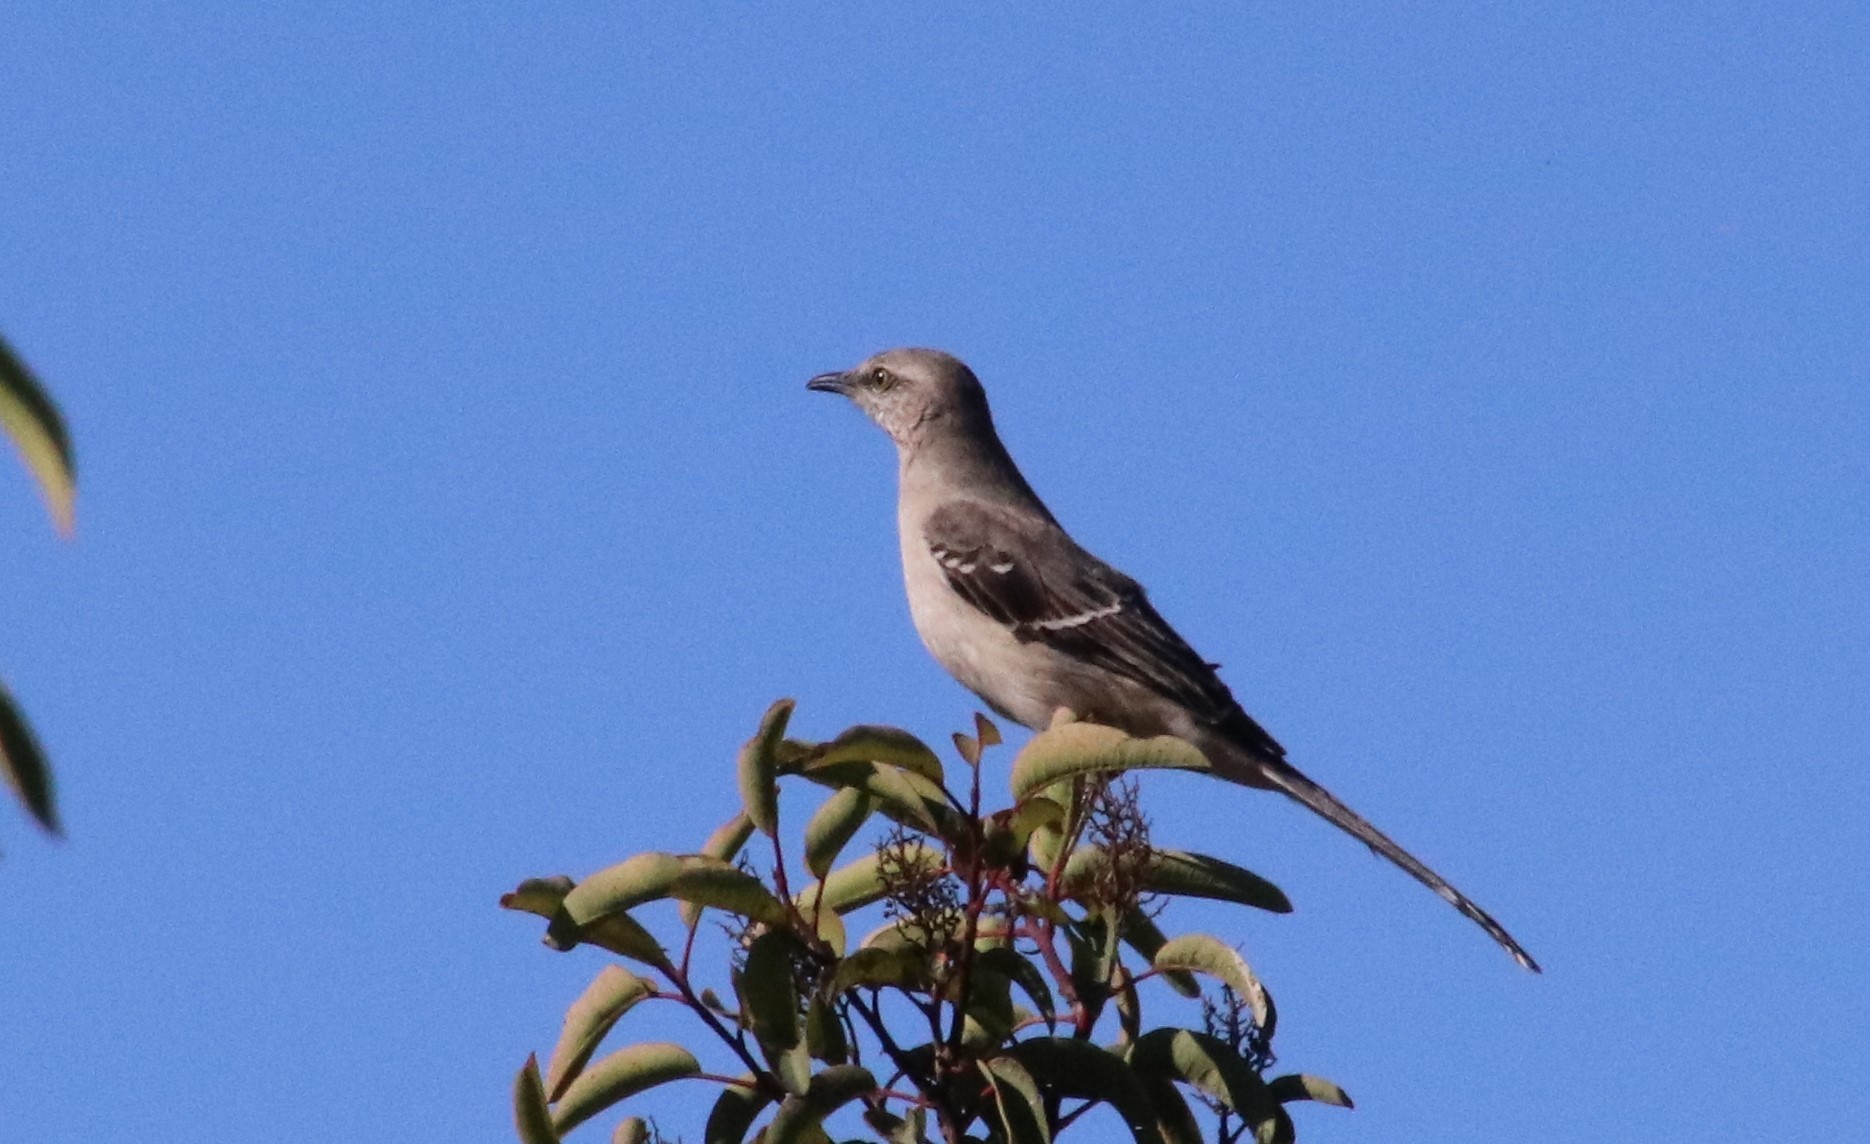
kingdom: Animalia
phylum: Chordata
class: Aves
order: Passeriformes
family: Mimidae
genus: Mimus
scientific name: Mimus polyglottos
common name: Northern mockingbird
